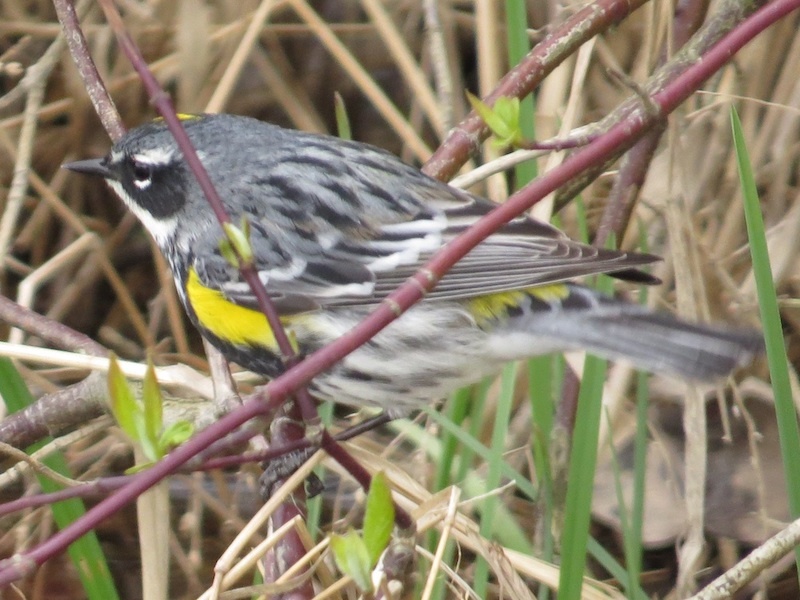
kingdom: Animalia
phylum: Chordata
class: Aves
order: Passeriformes
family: Parulidae
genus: Setophaga
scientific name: Setophaga coronata
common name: Myrtle warbler
